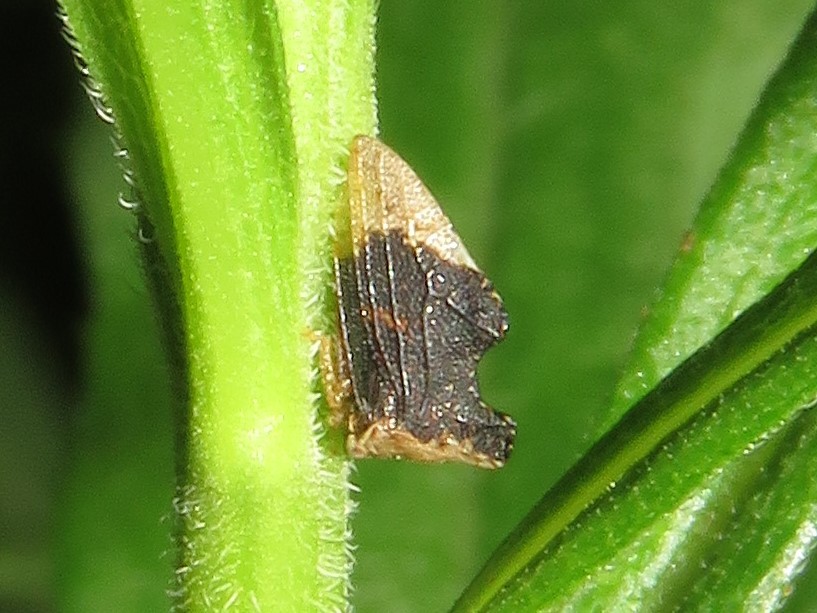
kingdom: Animalia
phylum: Arthropoda
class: Insecta
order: Hemiptera
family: Membracidae
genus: Entylia
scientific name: Entylia carinata
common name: Keeled treehopper
